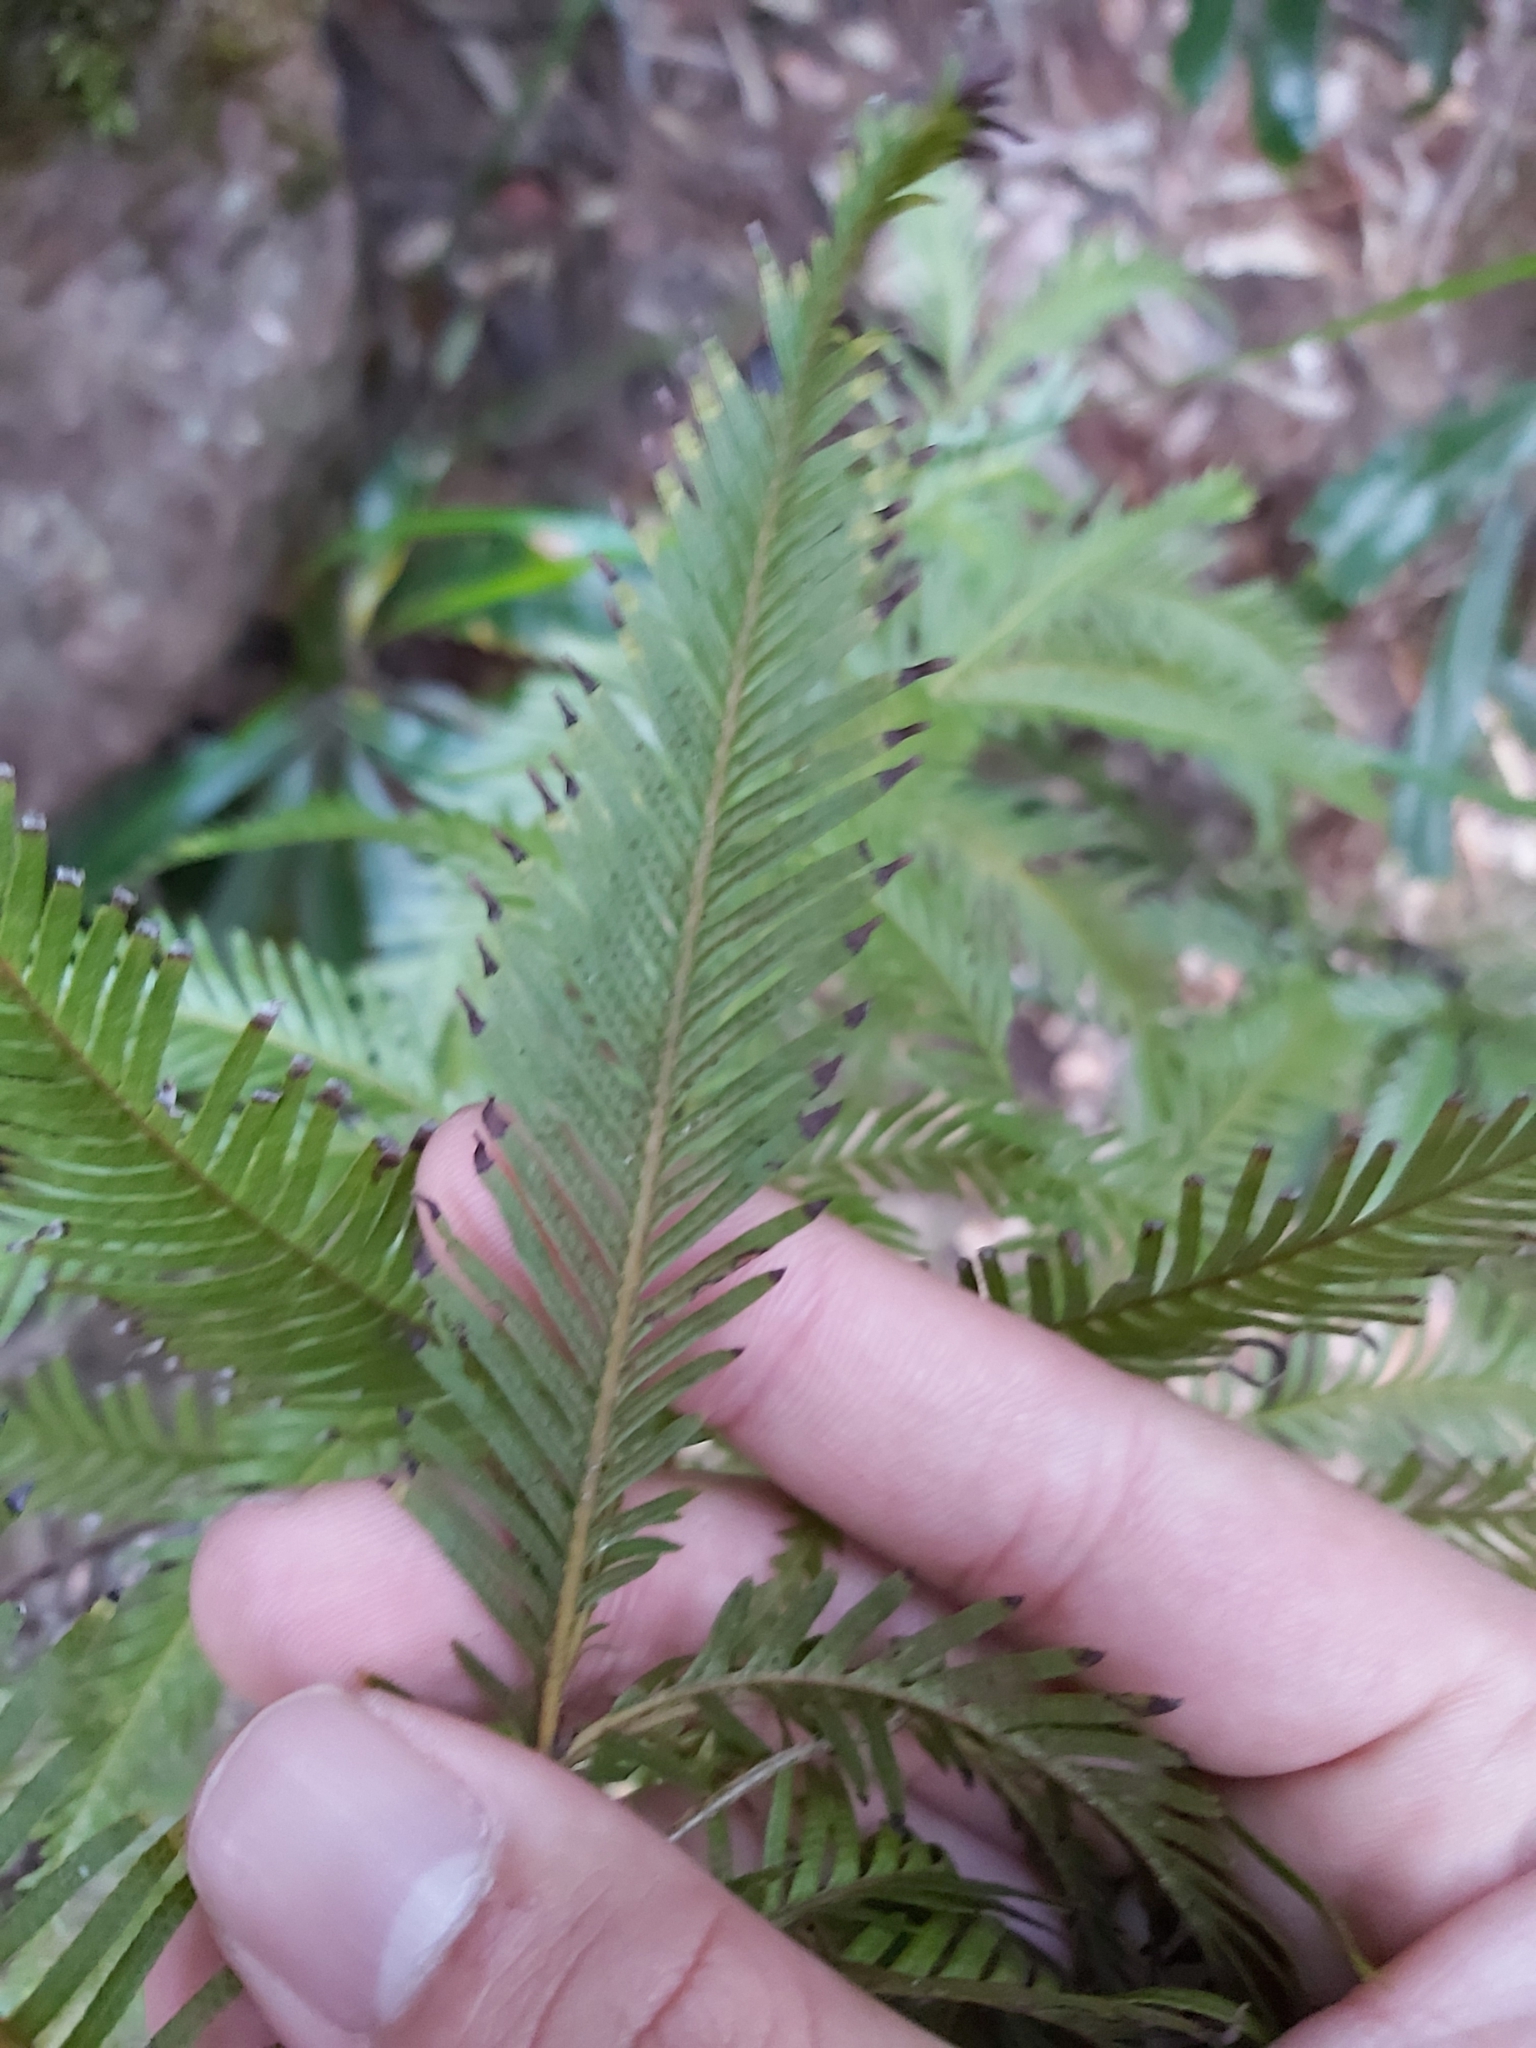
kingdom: Plantae
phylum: Tracheophyta
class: Polypodiopsida
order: Gleicheniales
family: Gleicheniaceae
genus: Sticherus
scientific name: Sticherus flabellatus
